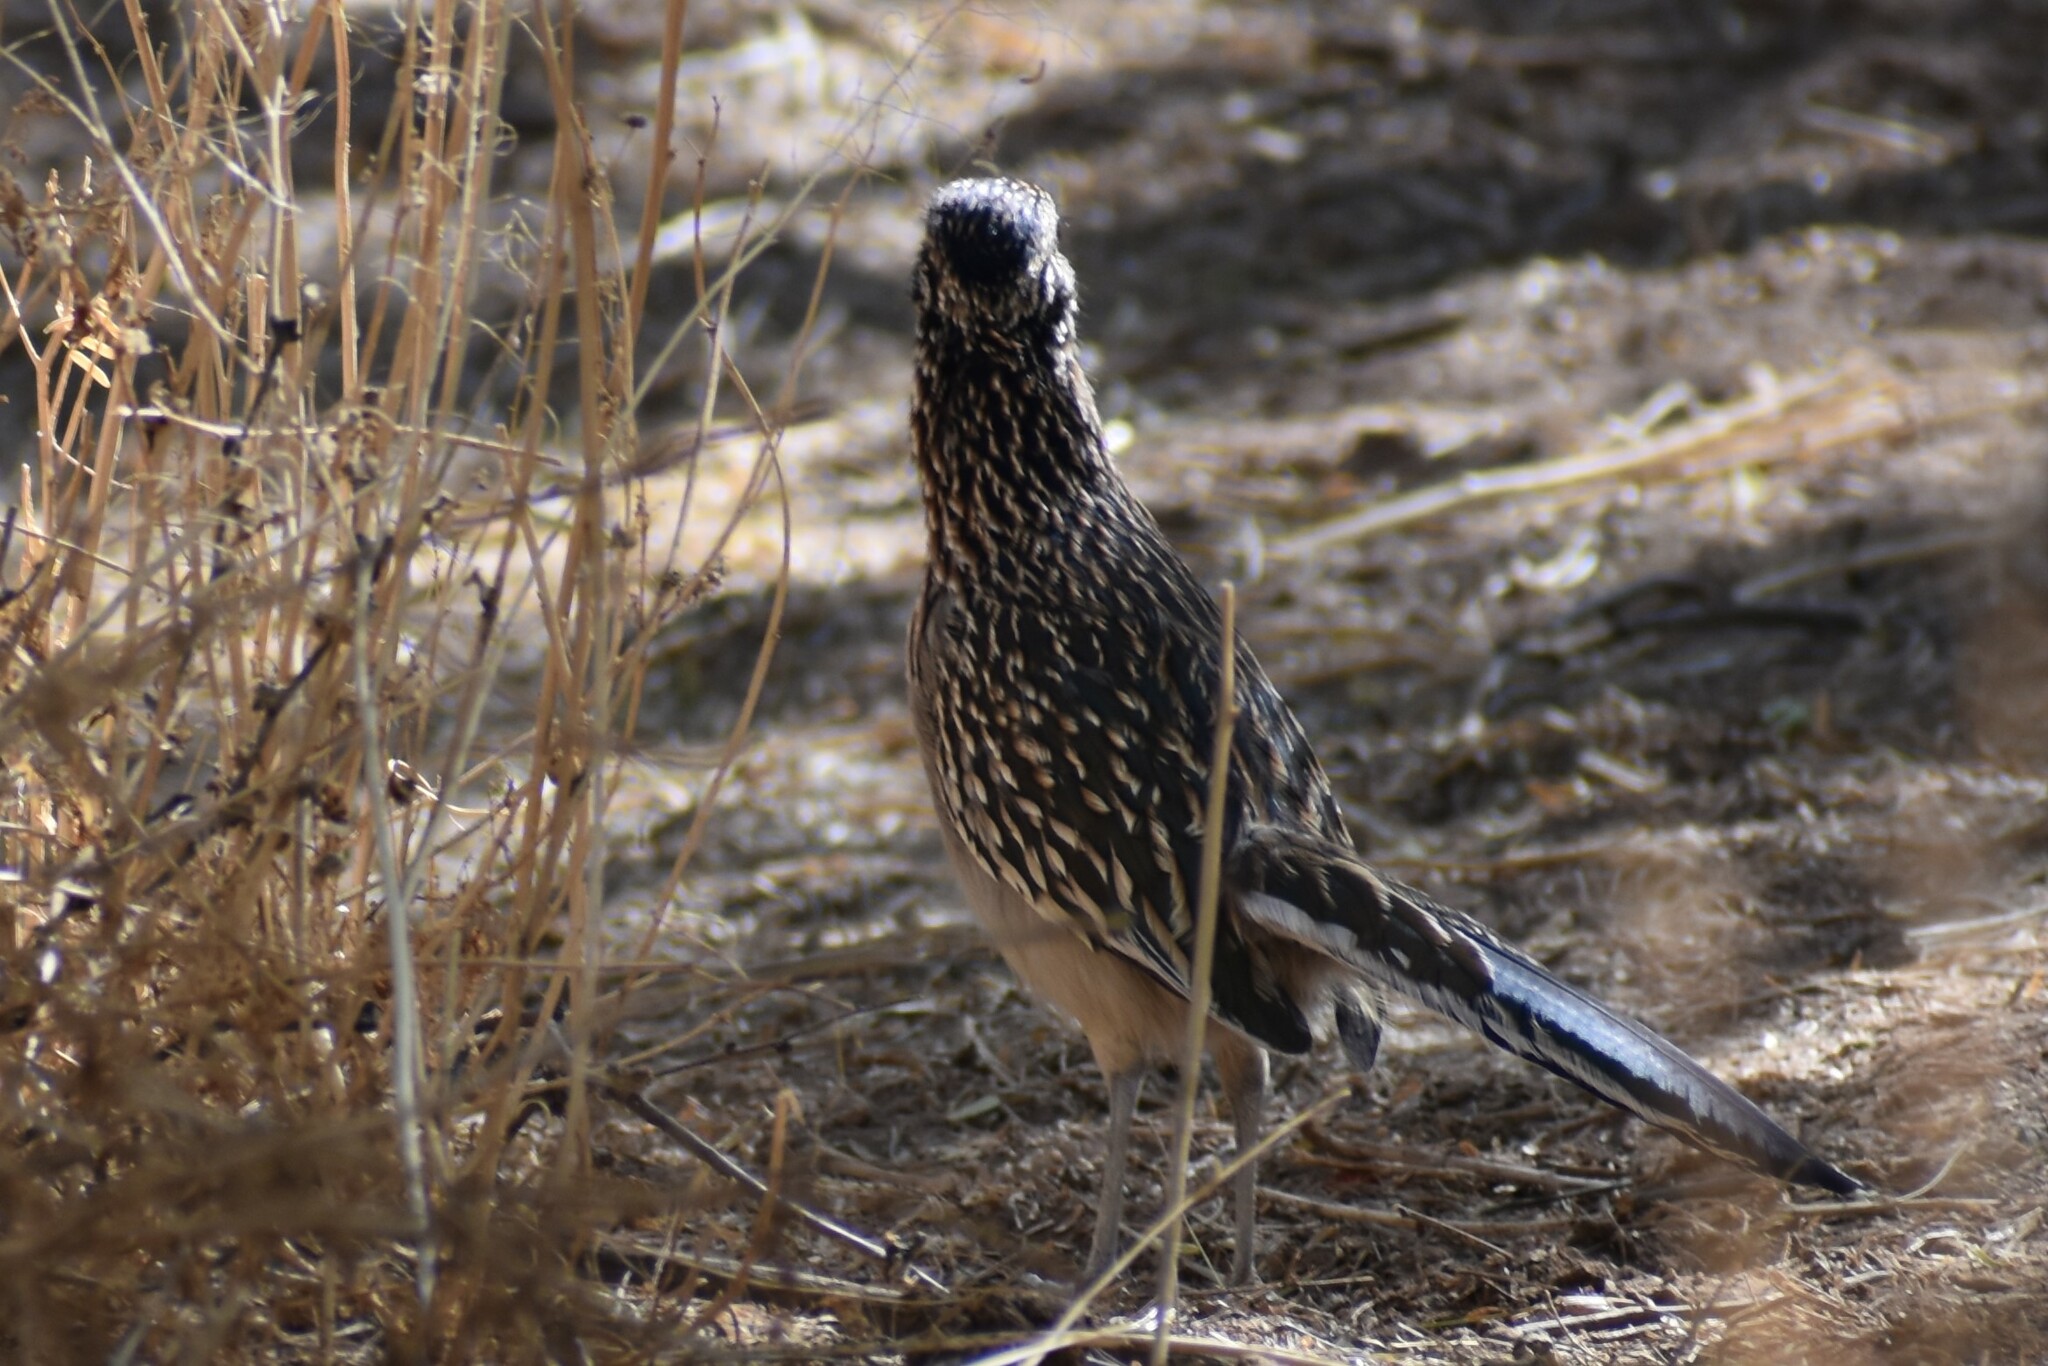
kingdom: Animalia
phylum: Chordata
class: Aves
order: Cuculiformes
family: Cuculidae
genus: Geococcyx
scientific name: Geococcyx californianus
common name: Greater roadrunner
